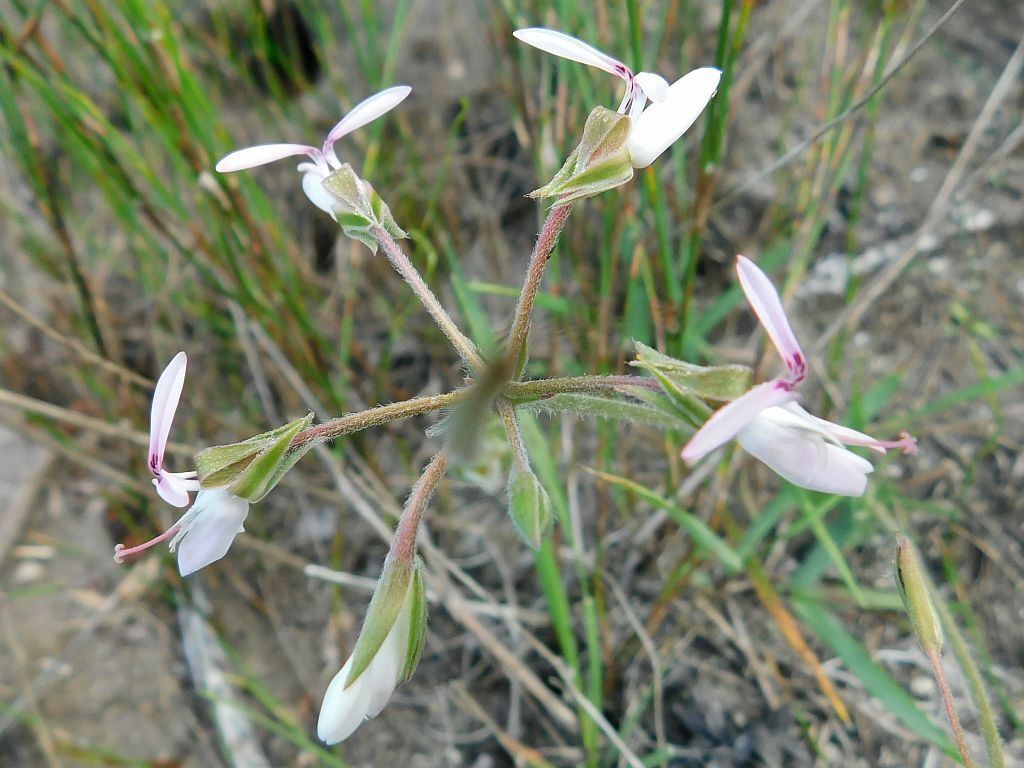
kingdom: Plantae
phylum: Tracheophyta
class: Magnoliopsida
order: Geraniales
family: Geraniaceae
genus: Pelargonium
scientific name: Pelargonium rapaceum
